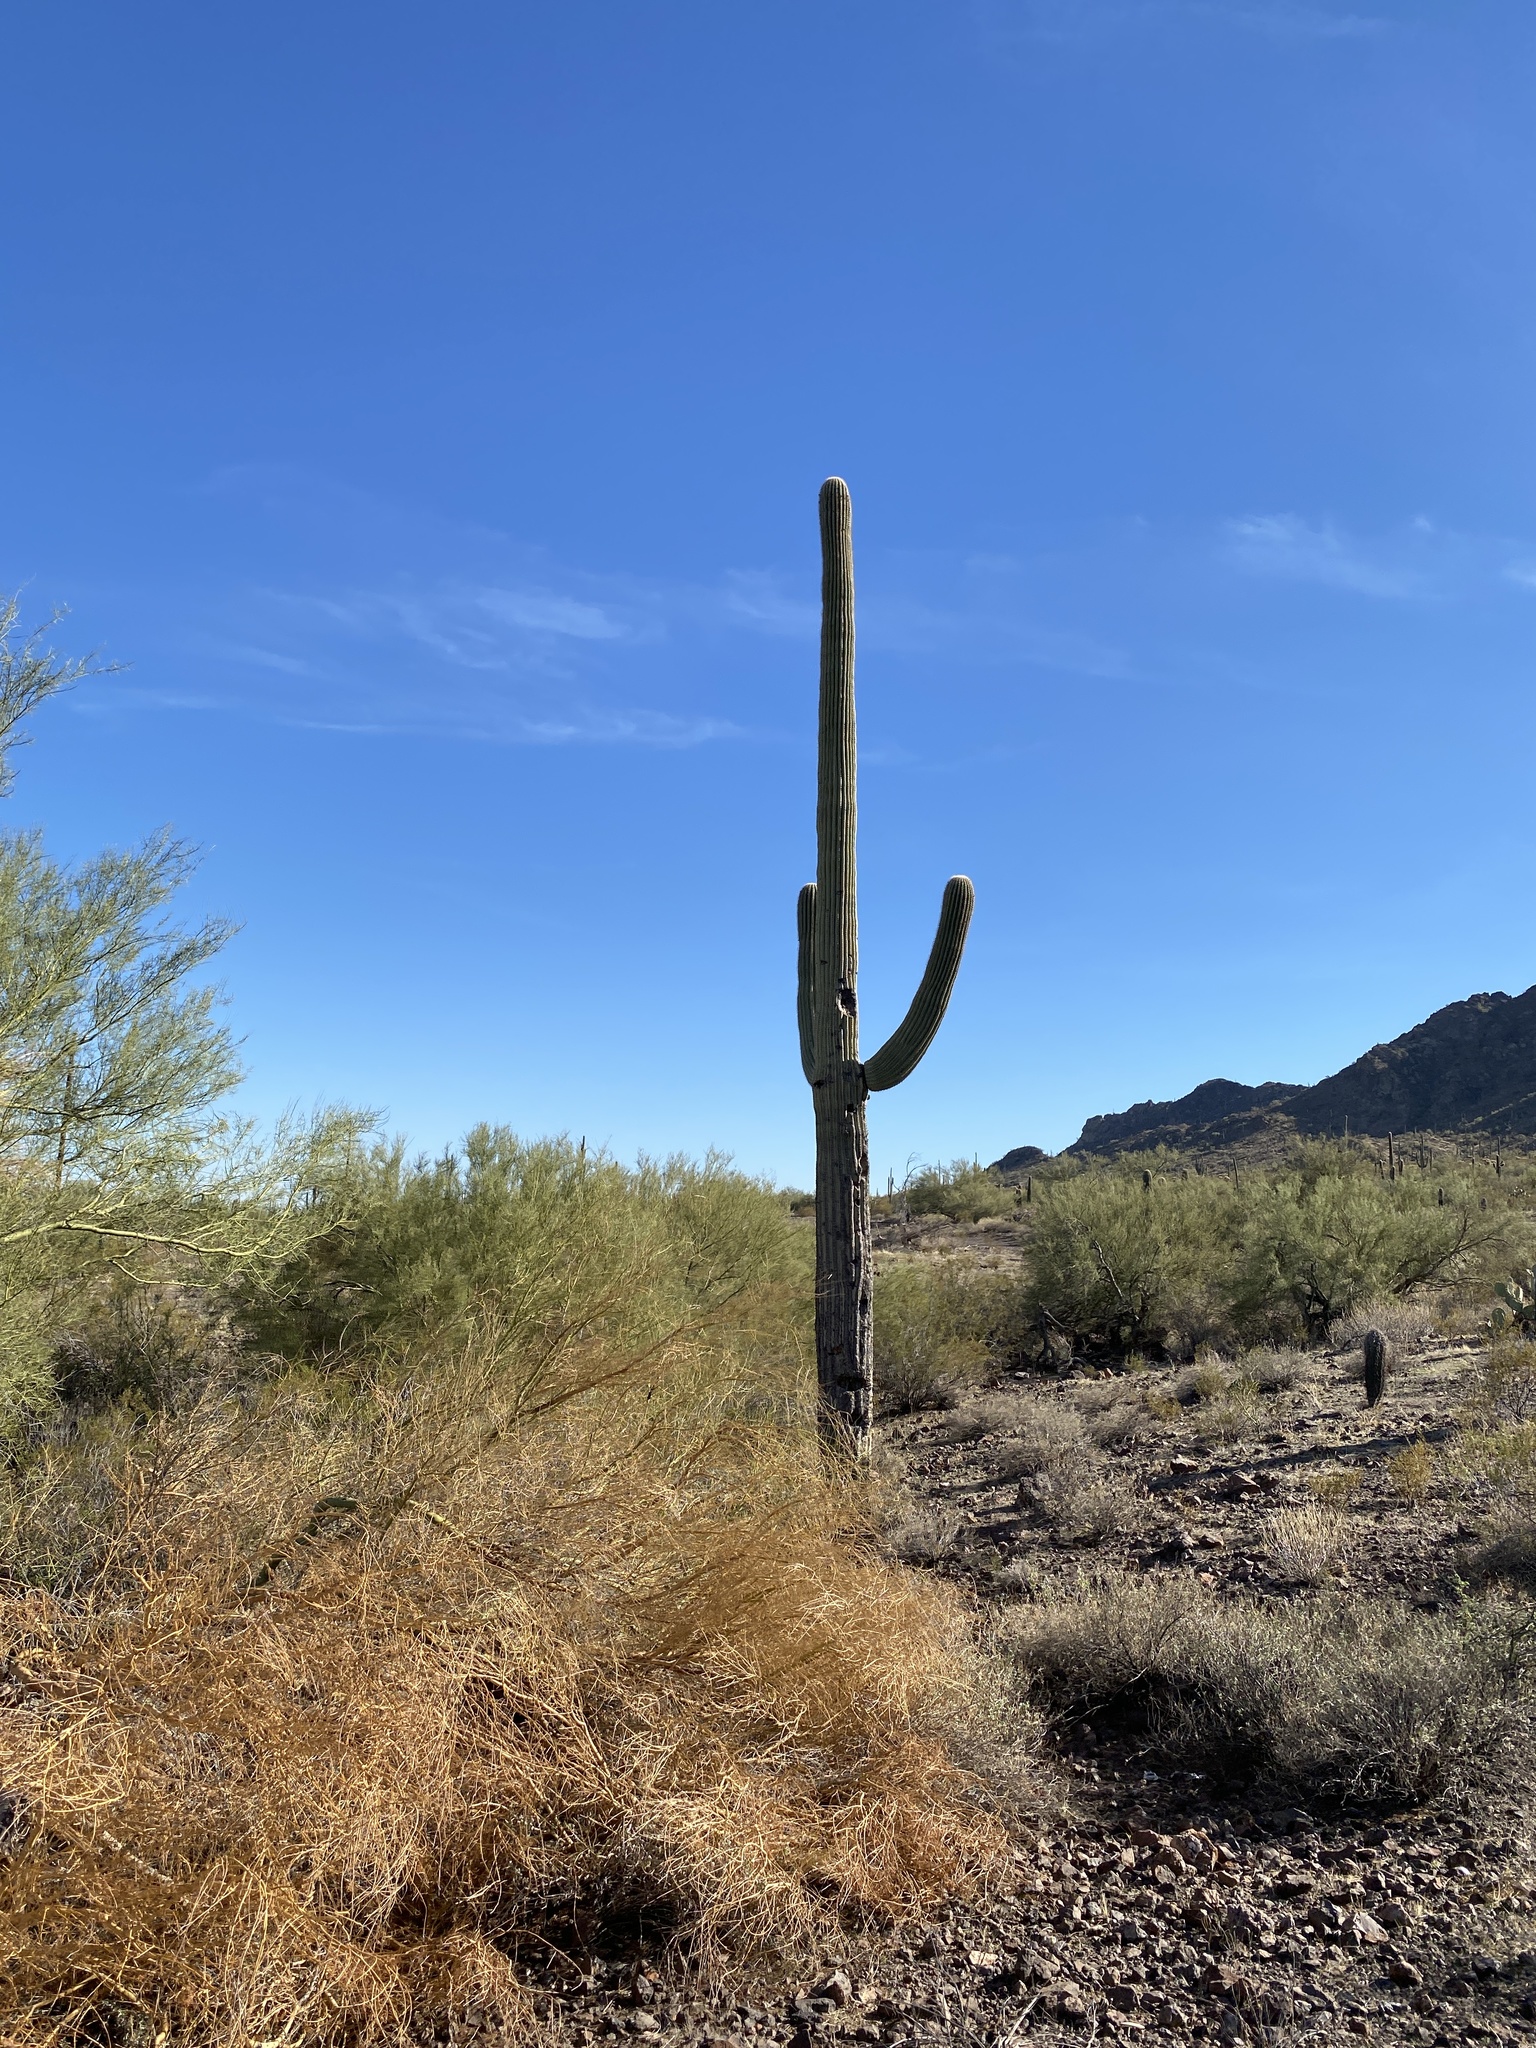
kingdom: Plantae
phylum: Tracheophyta
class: Magnoliopsida
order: Caryophyllales
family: Cactaceae
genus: Carnegiea
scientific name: Carnegiea gigantea
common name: Saguaro
